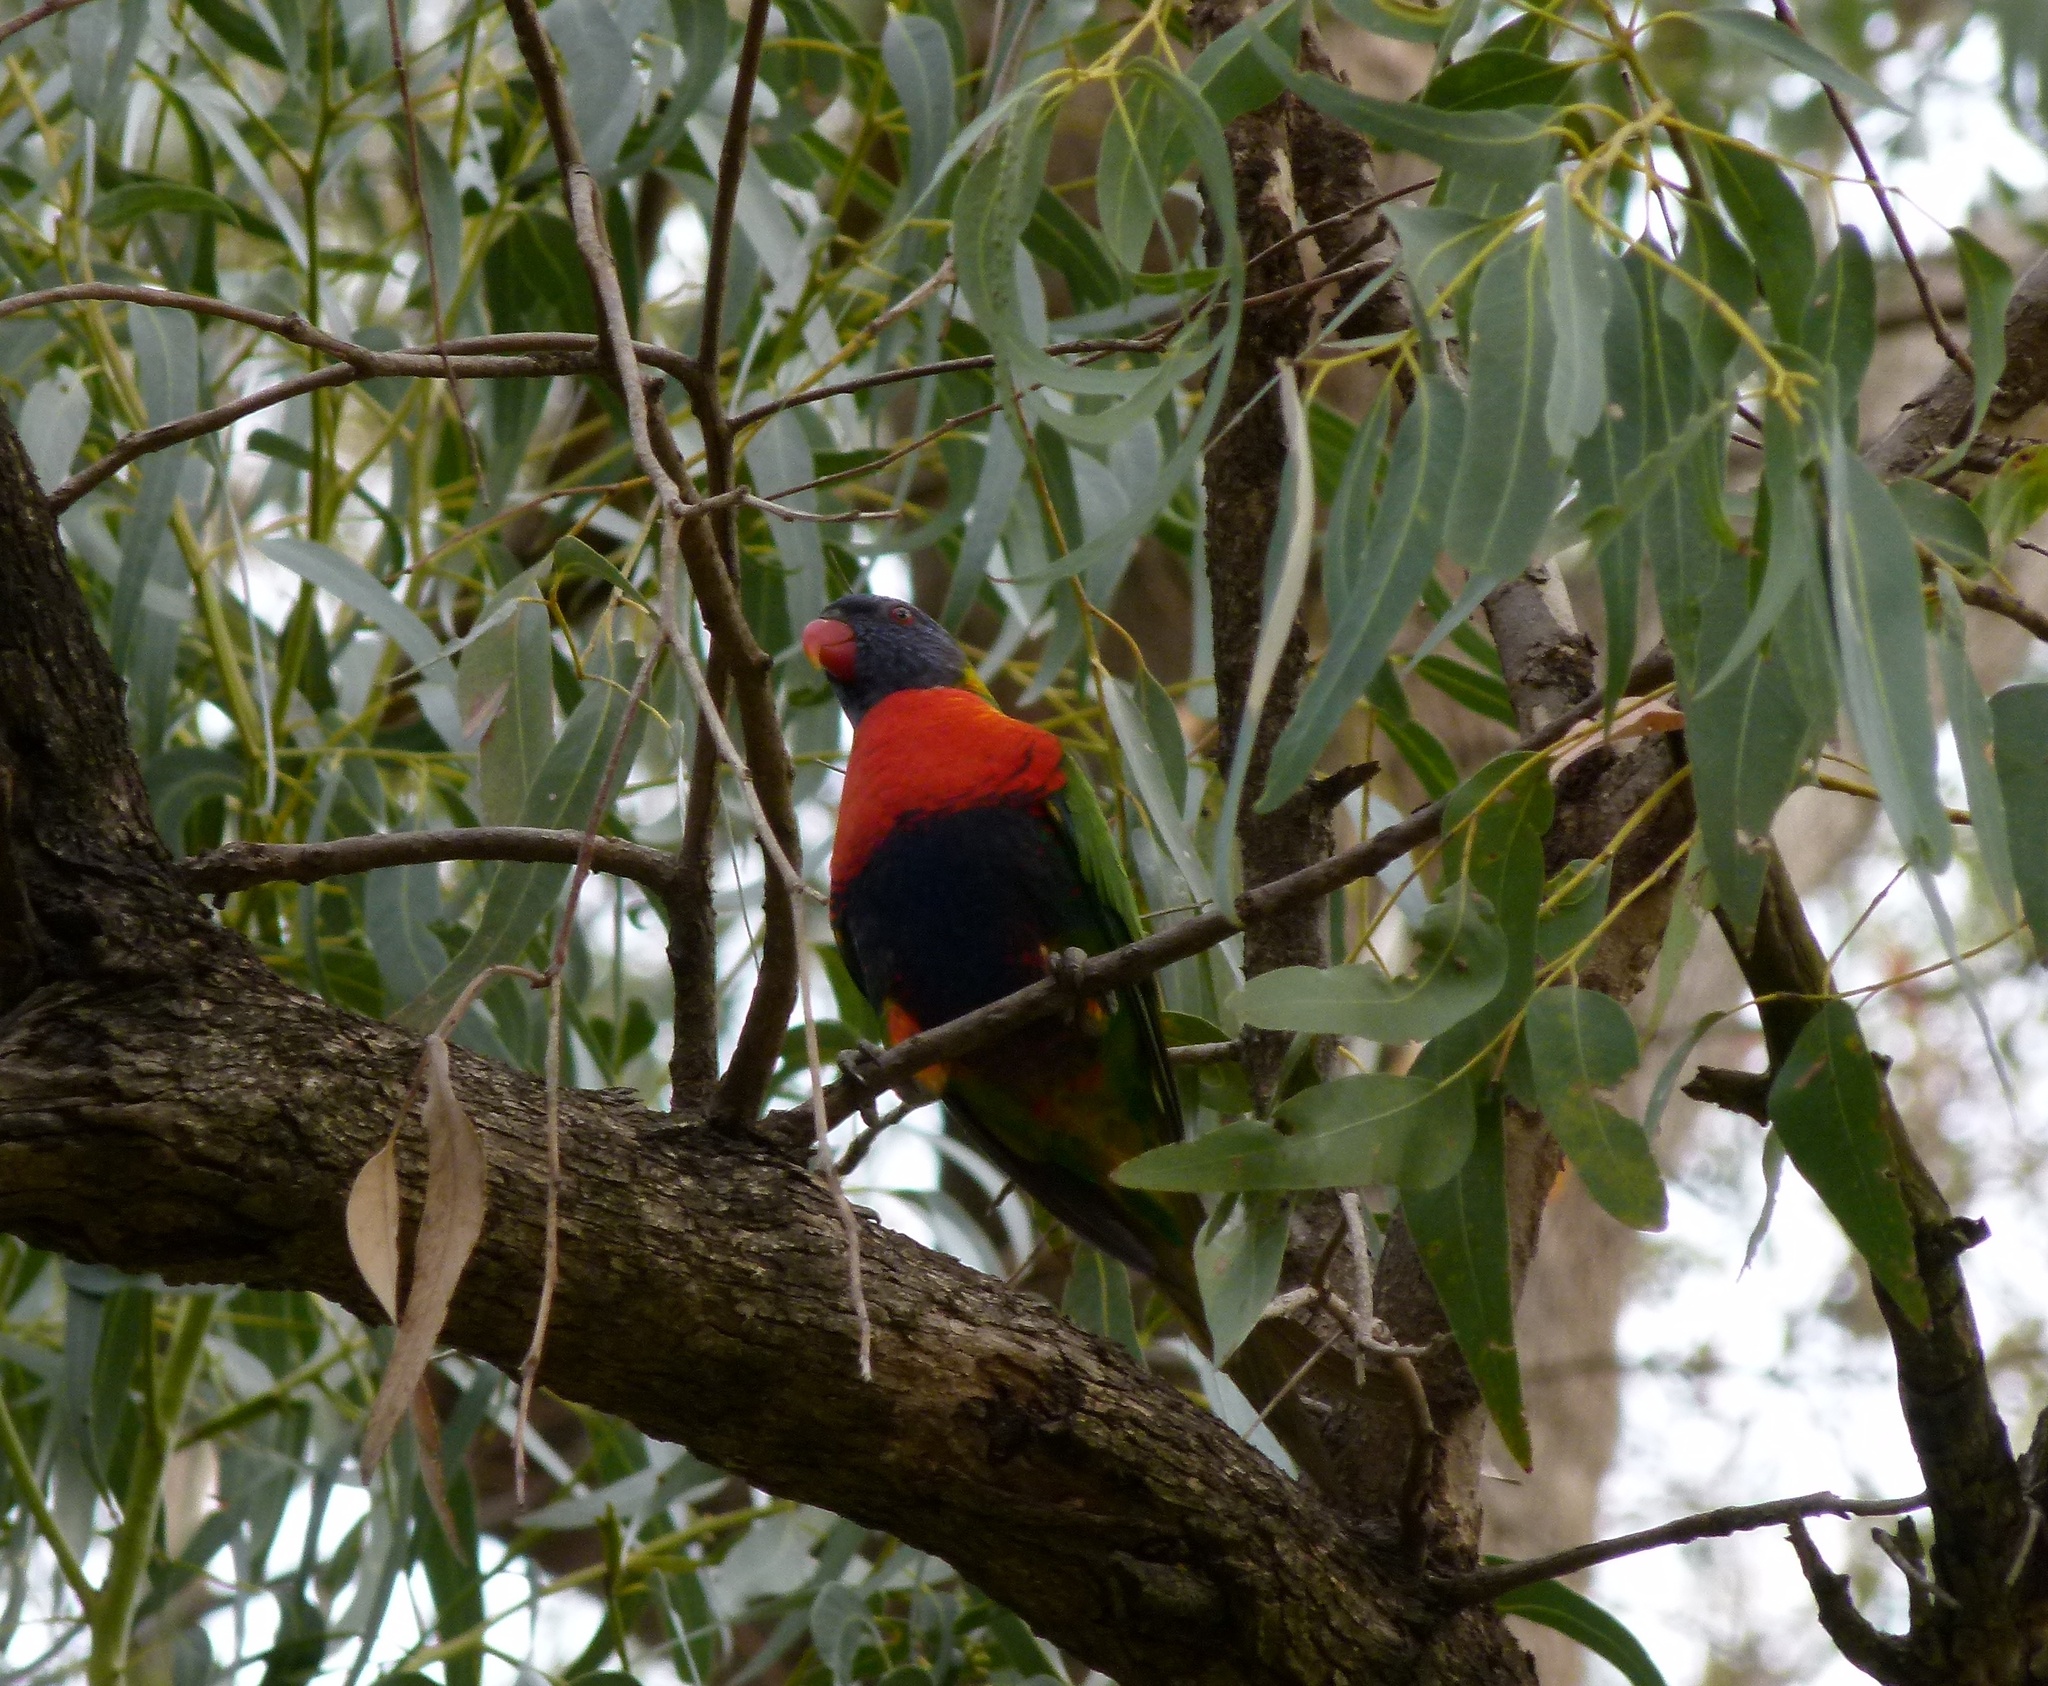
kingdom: Animalia
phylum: Chordata
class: Aves
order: Psittaciformes
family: Psittacidae
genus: Trichoglossus
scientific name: Trichoglossus haematodus
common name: Coconut lorikeet
